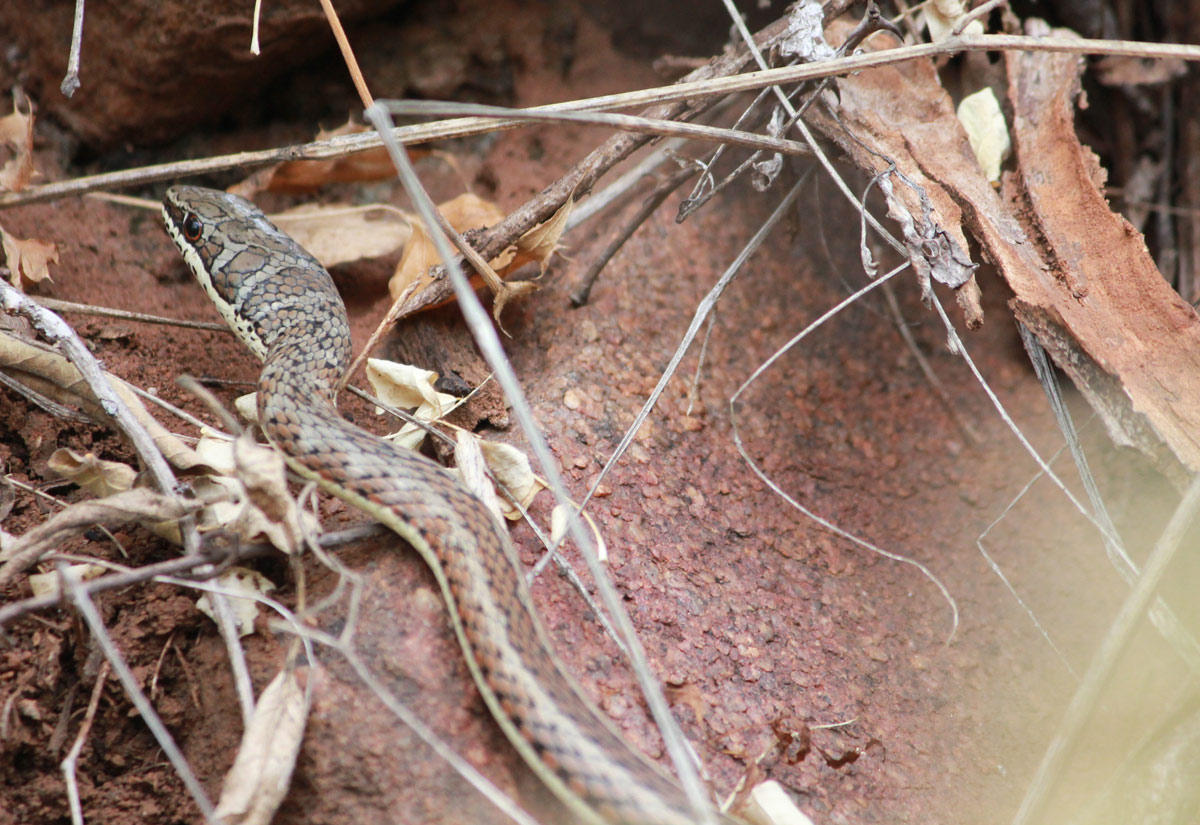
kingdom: Animalia
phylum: Chordata
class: Squamata
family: Psammophiidae
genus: Psammophis
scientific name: Psammophis subtaeniatus
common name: Stripe-bellied sand snake
